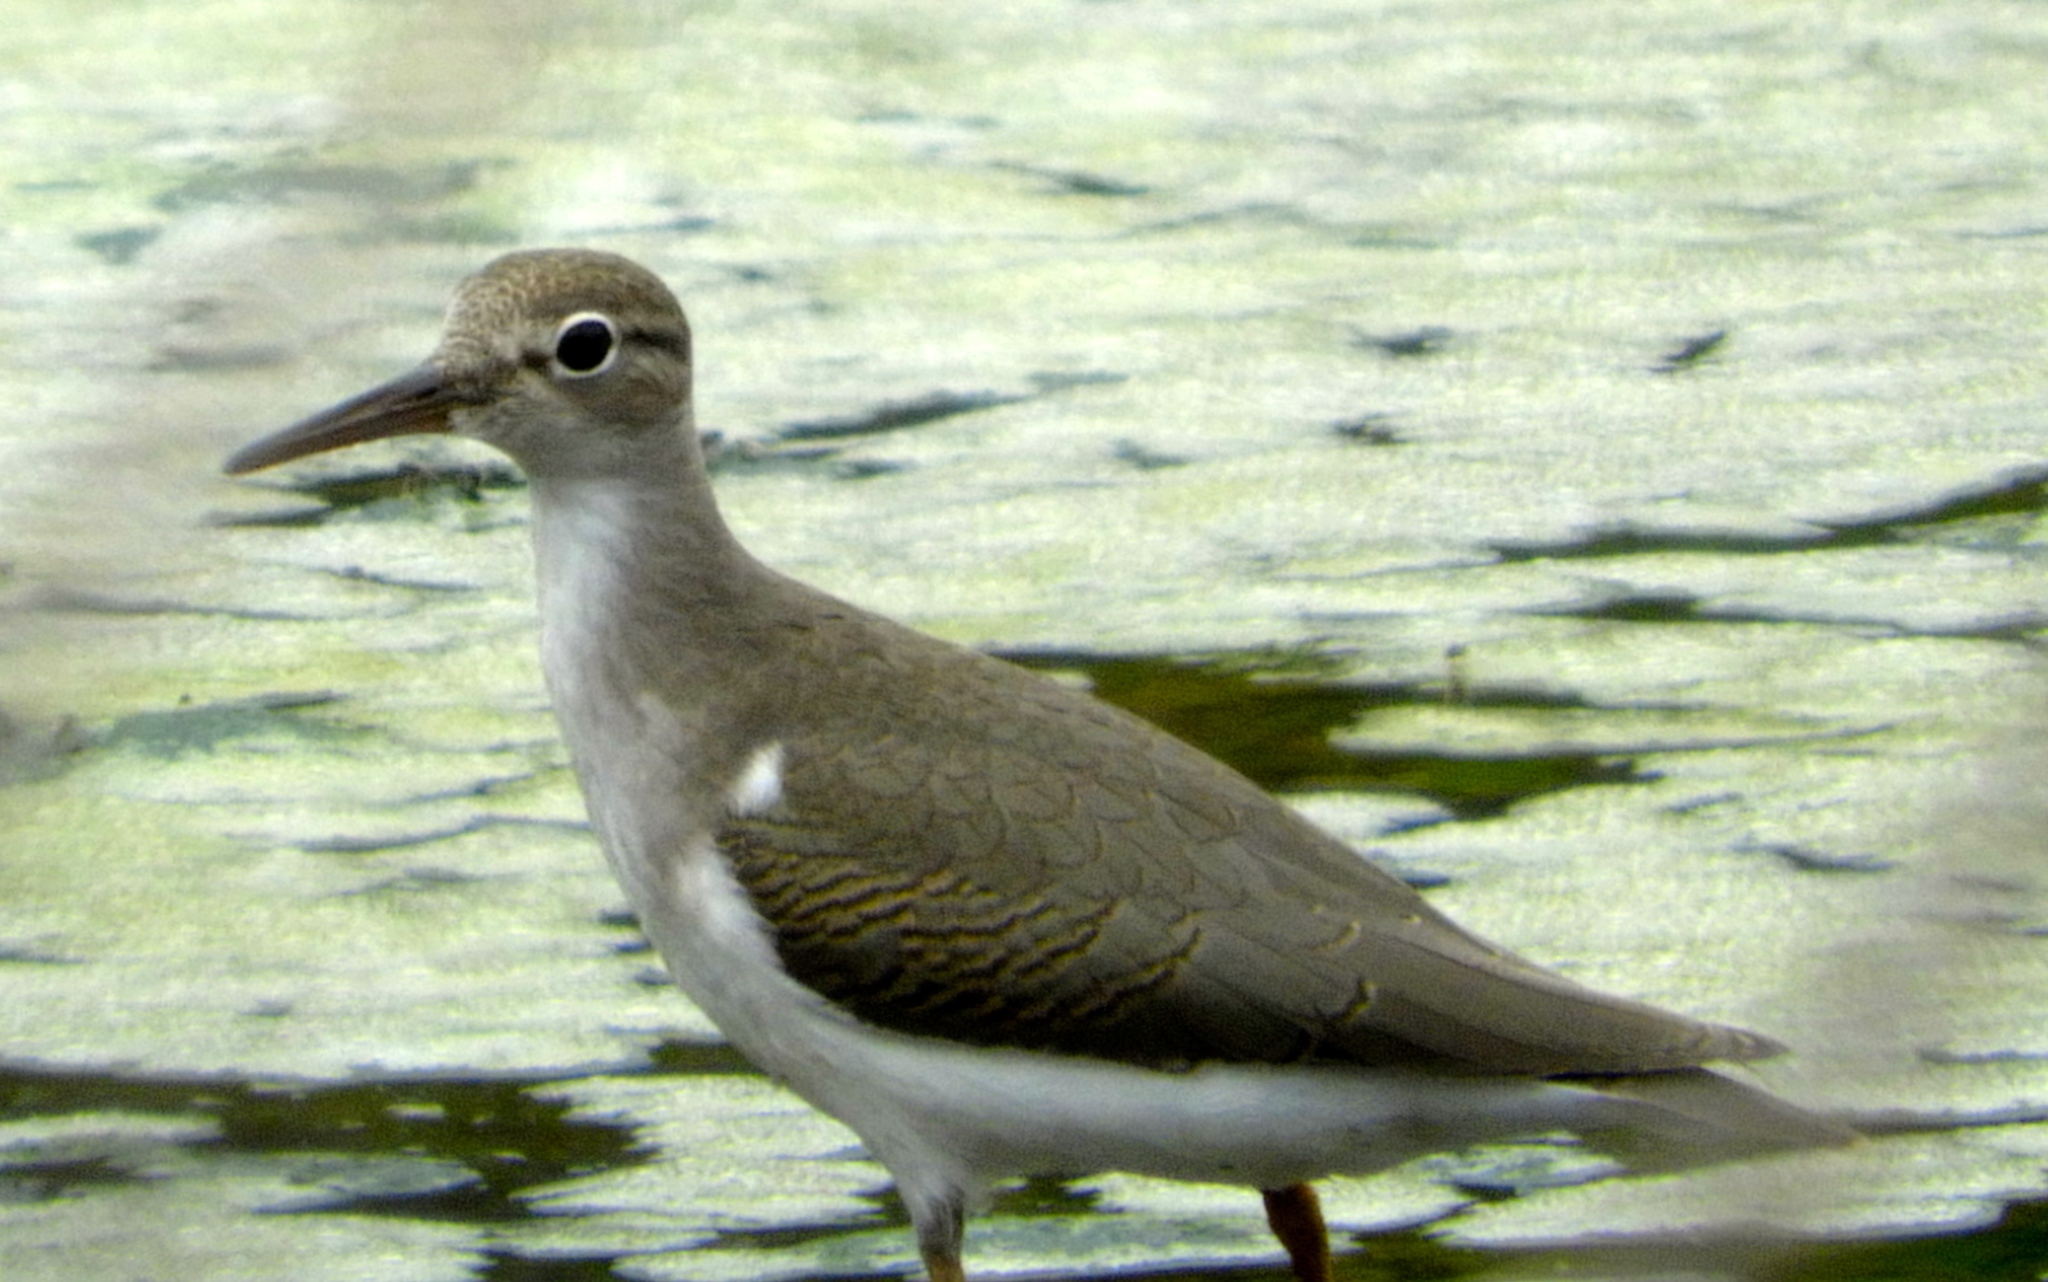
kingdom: Animalia
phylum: Chordata
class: Aves
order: Charadriiformes
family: Scolopacidae
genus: Actitis
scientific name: Actitis macularius
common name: Spotted sandpiper
